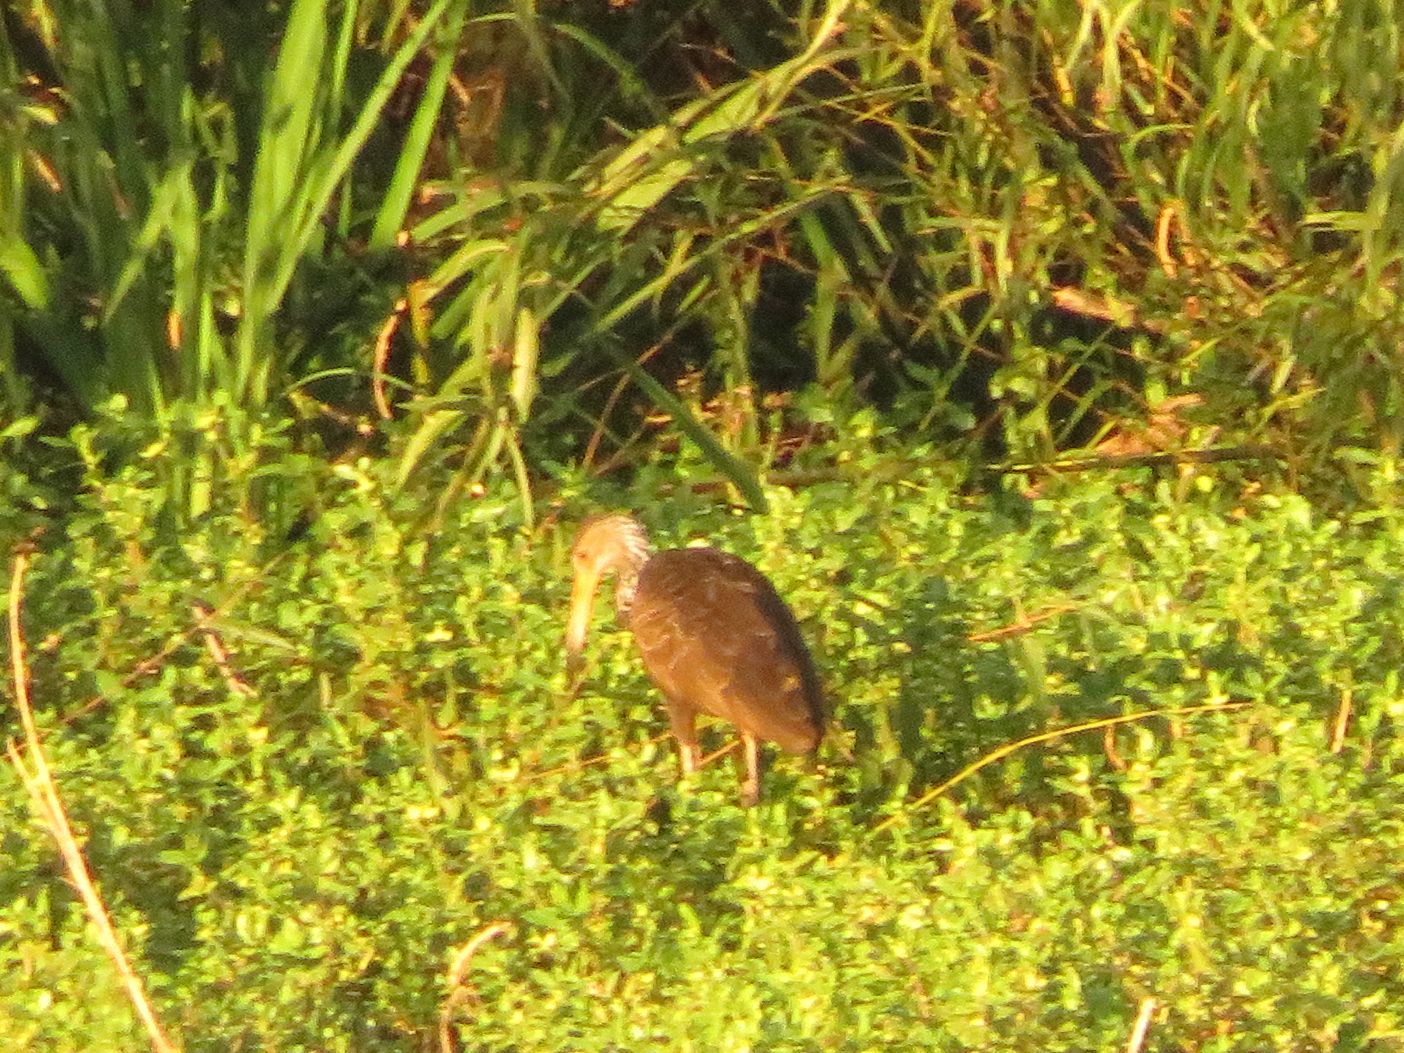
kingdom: Animalia
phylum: Chordata
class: Aves
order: Gruiformes
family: Aramidae
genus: Aramus
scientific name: Aramus guarauna
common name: Limpkin
